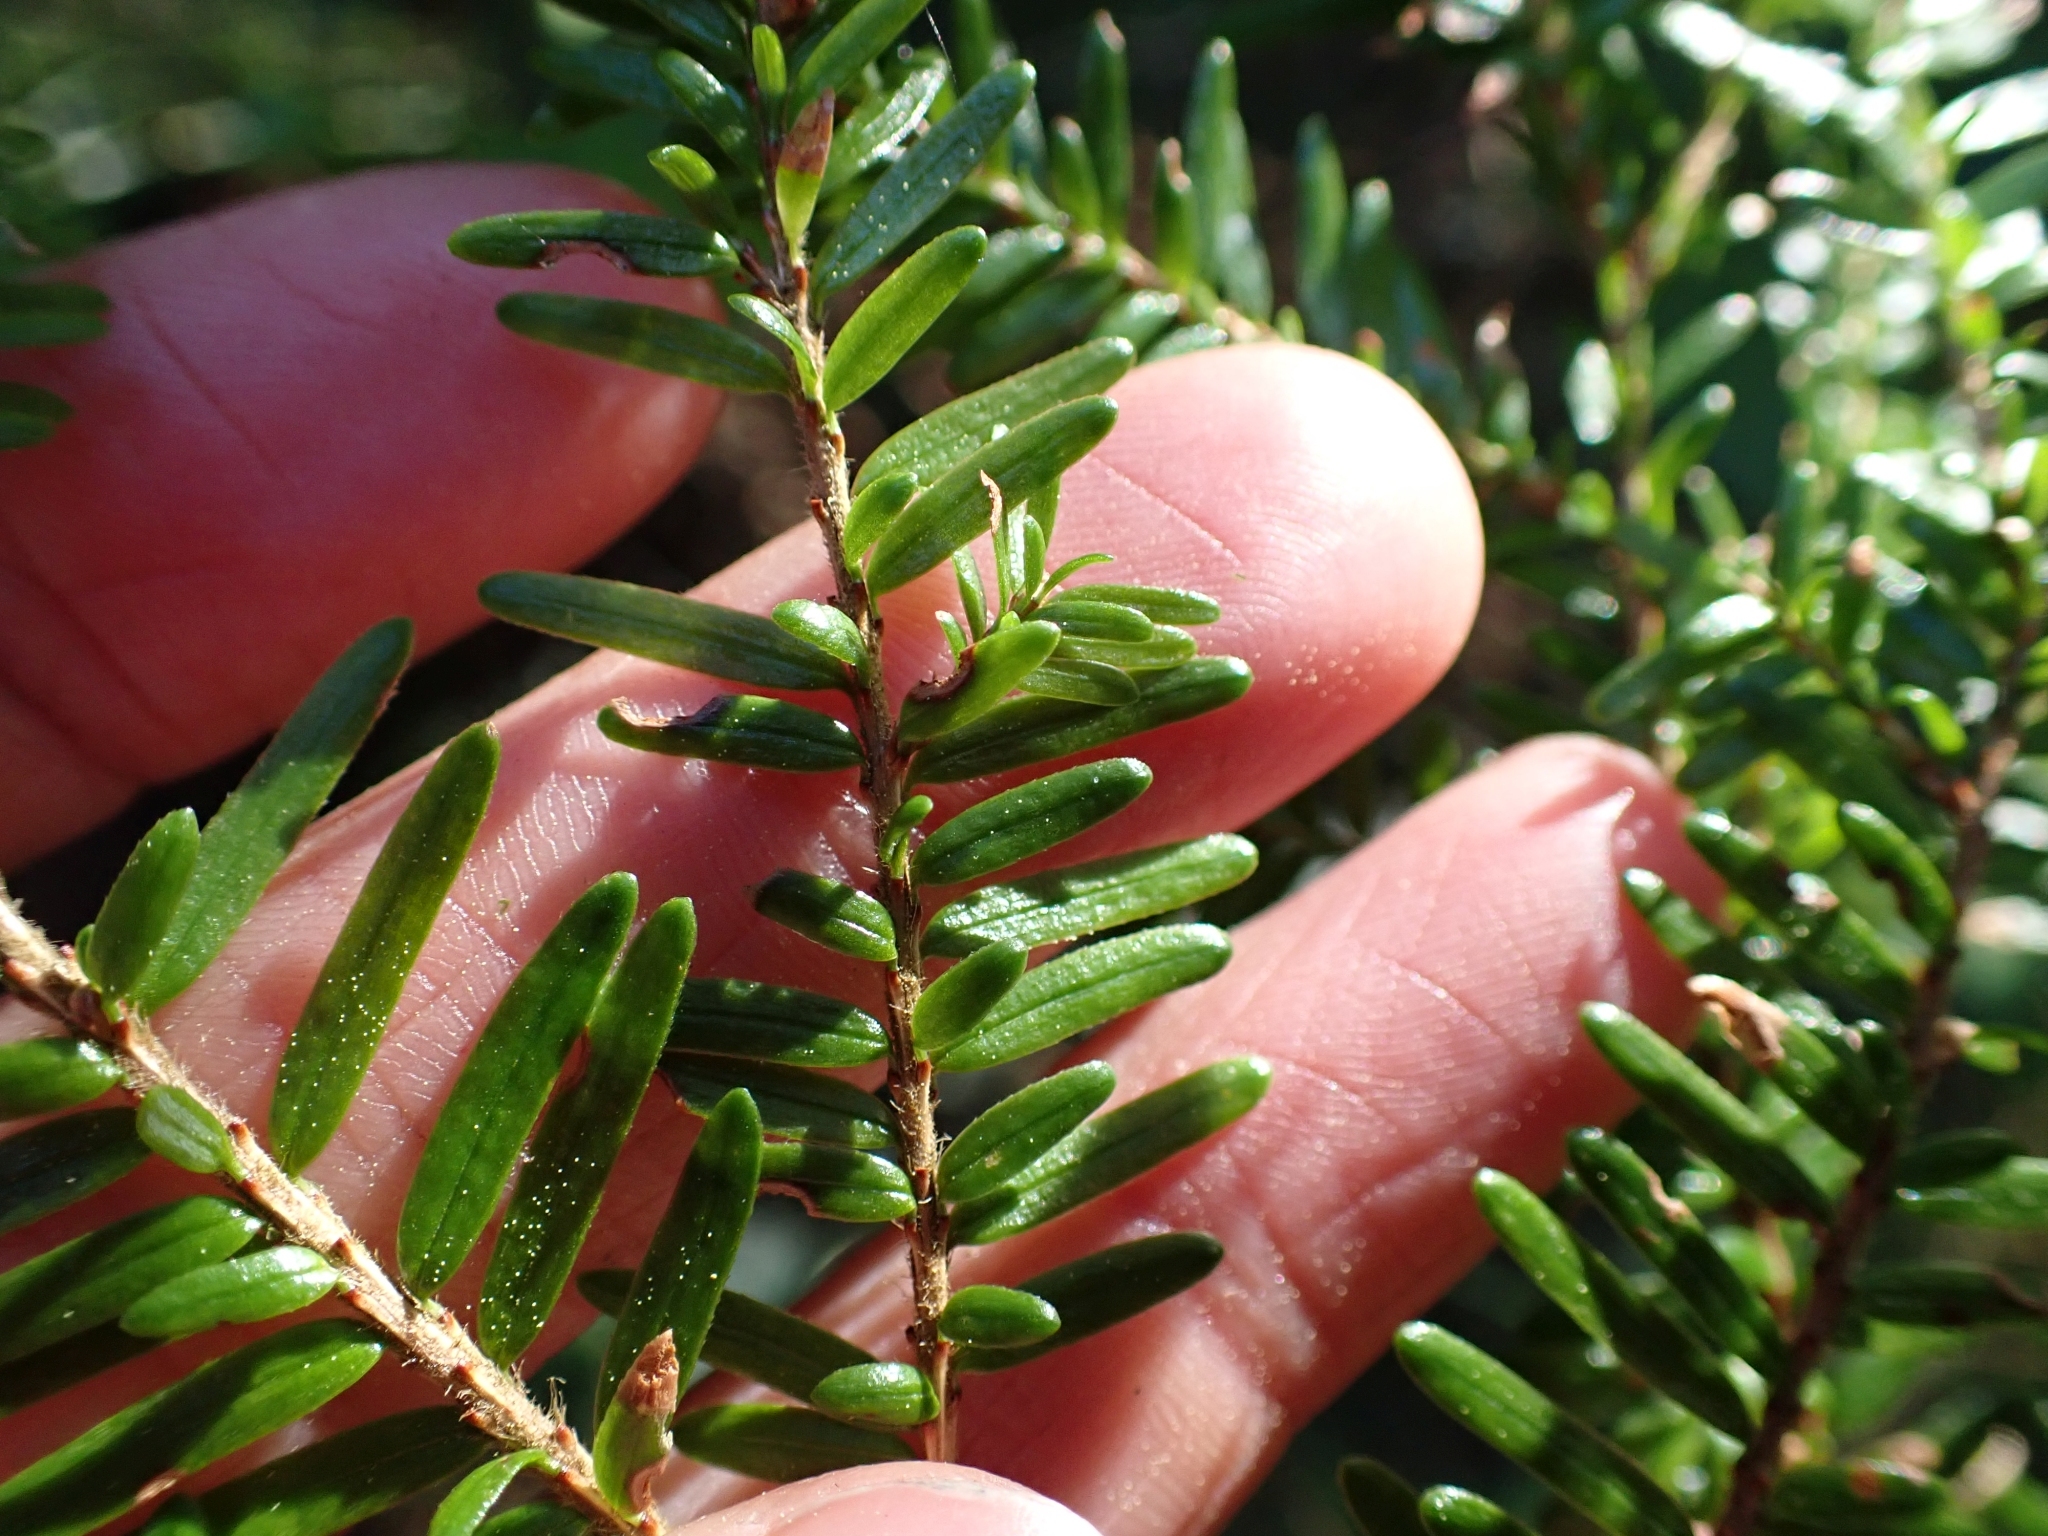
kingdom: Plantae
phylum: Tracheophyta
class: Pinopsida
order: Pinales
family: Pinaceae
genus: Tsuga
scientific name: Tsuga heterophylla
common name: Western hemlock
